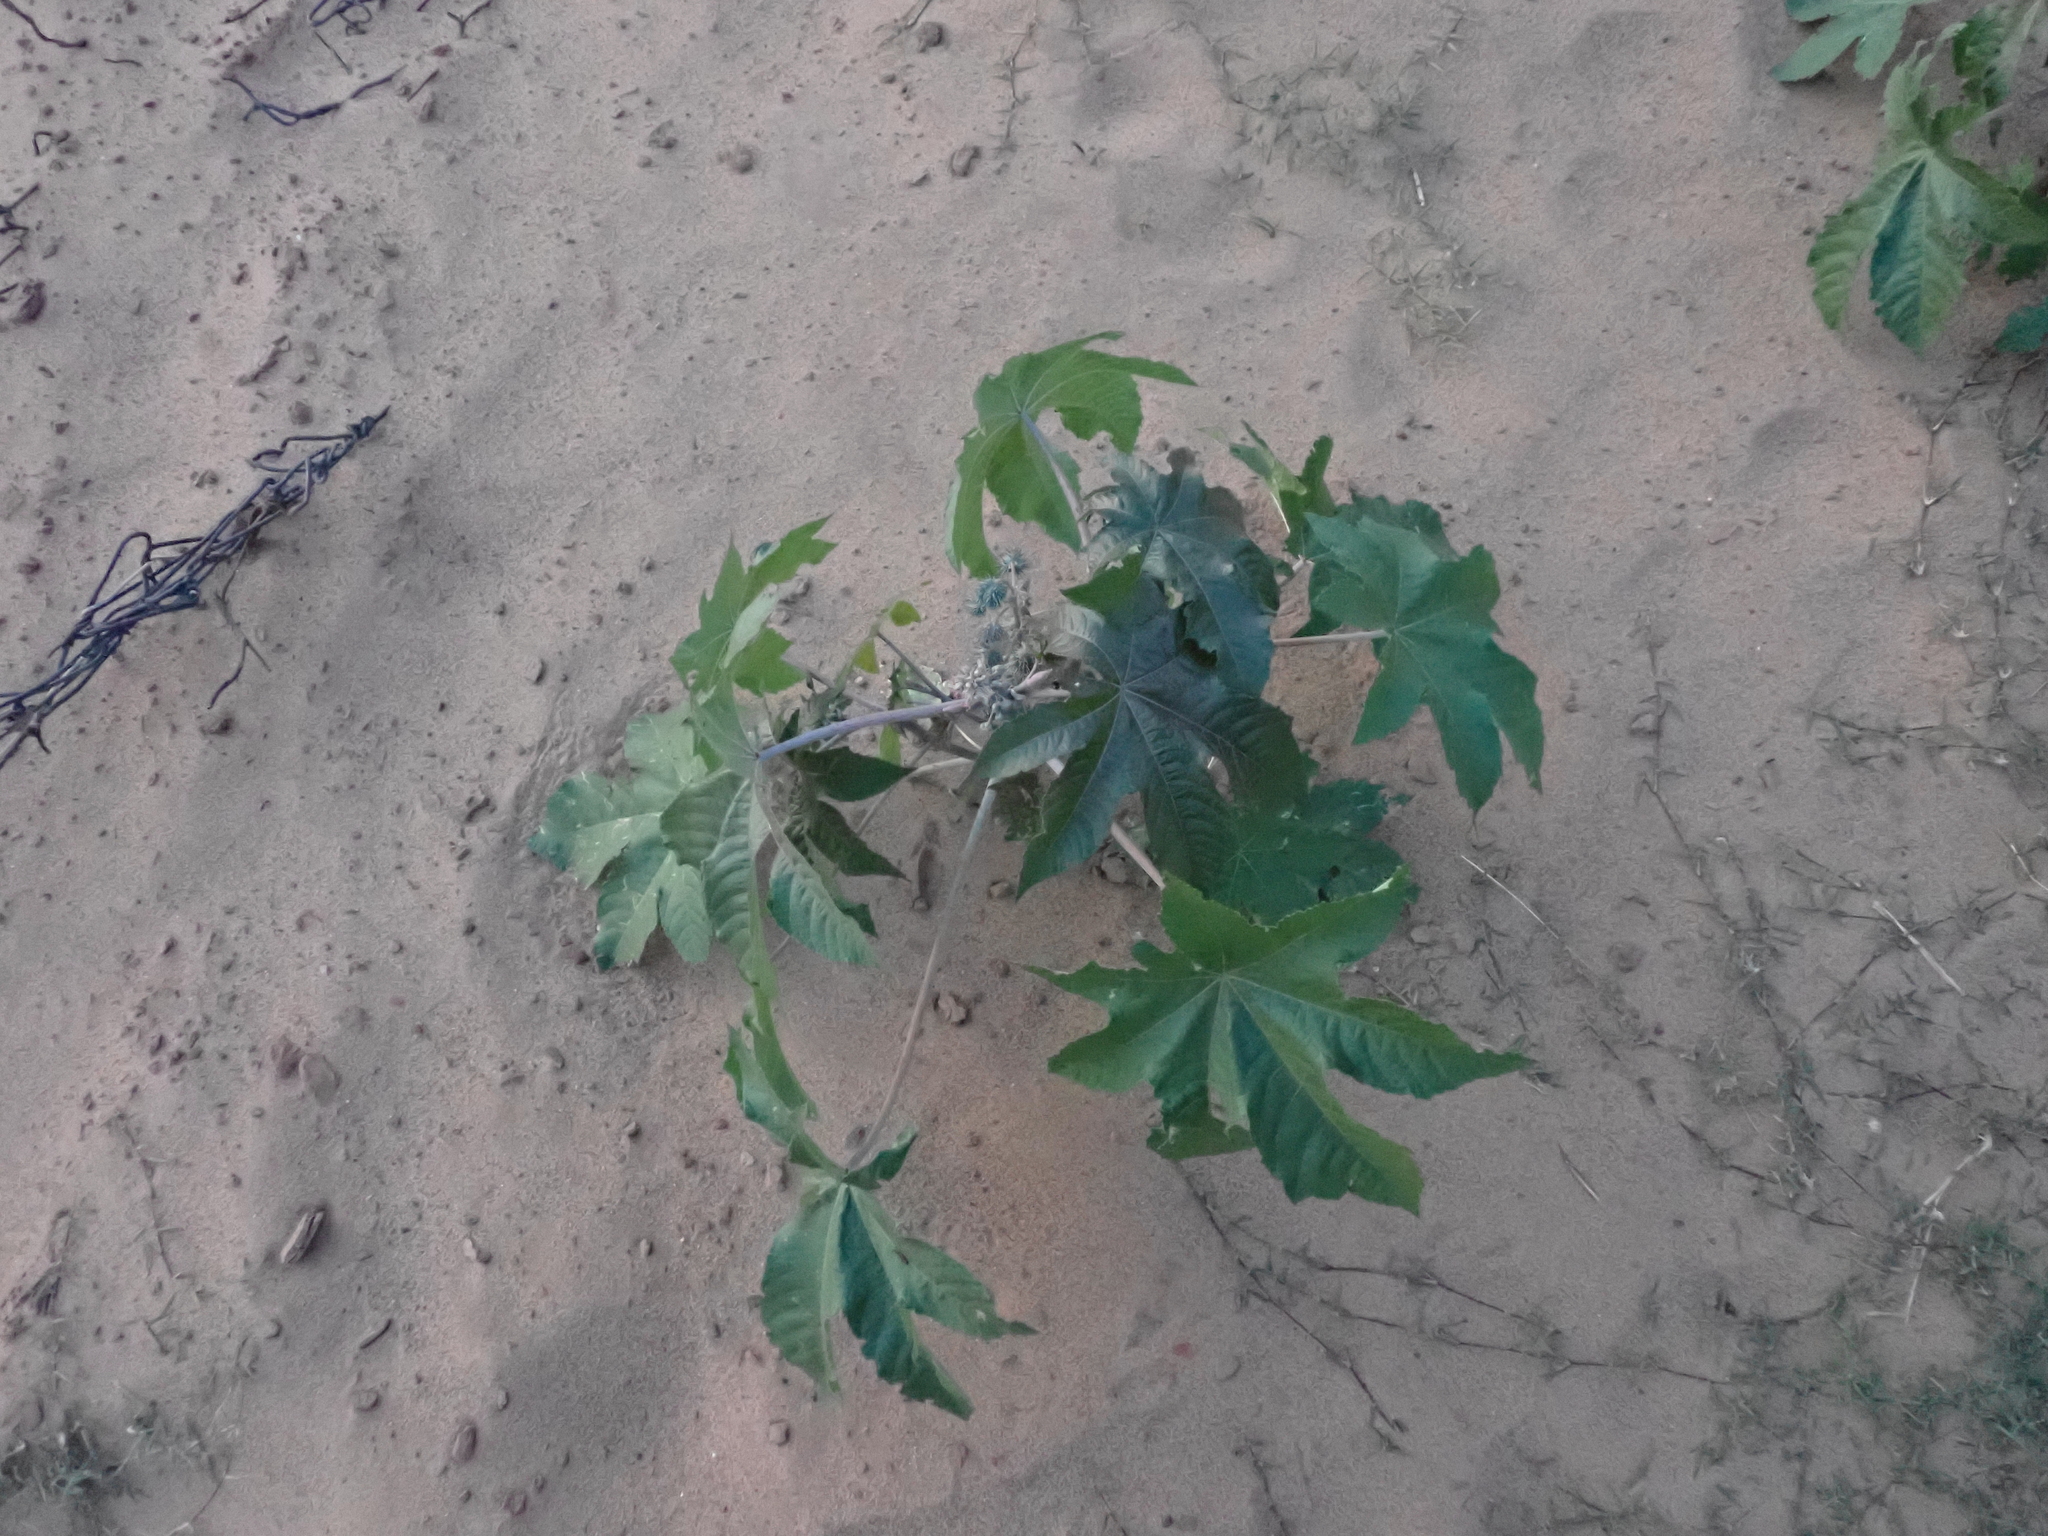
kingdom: Plantae
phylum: Tracheophyta
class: Magnoliopsida
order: Malpighiales
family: Euphorbiaceae
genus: Ricinus
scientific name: Ricinus communis
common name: Castor-oil-plant
